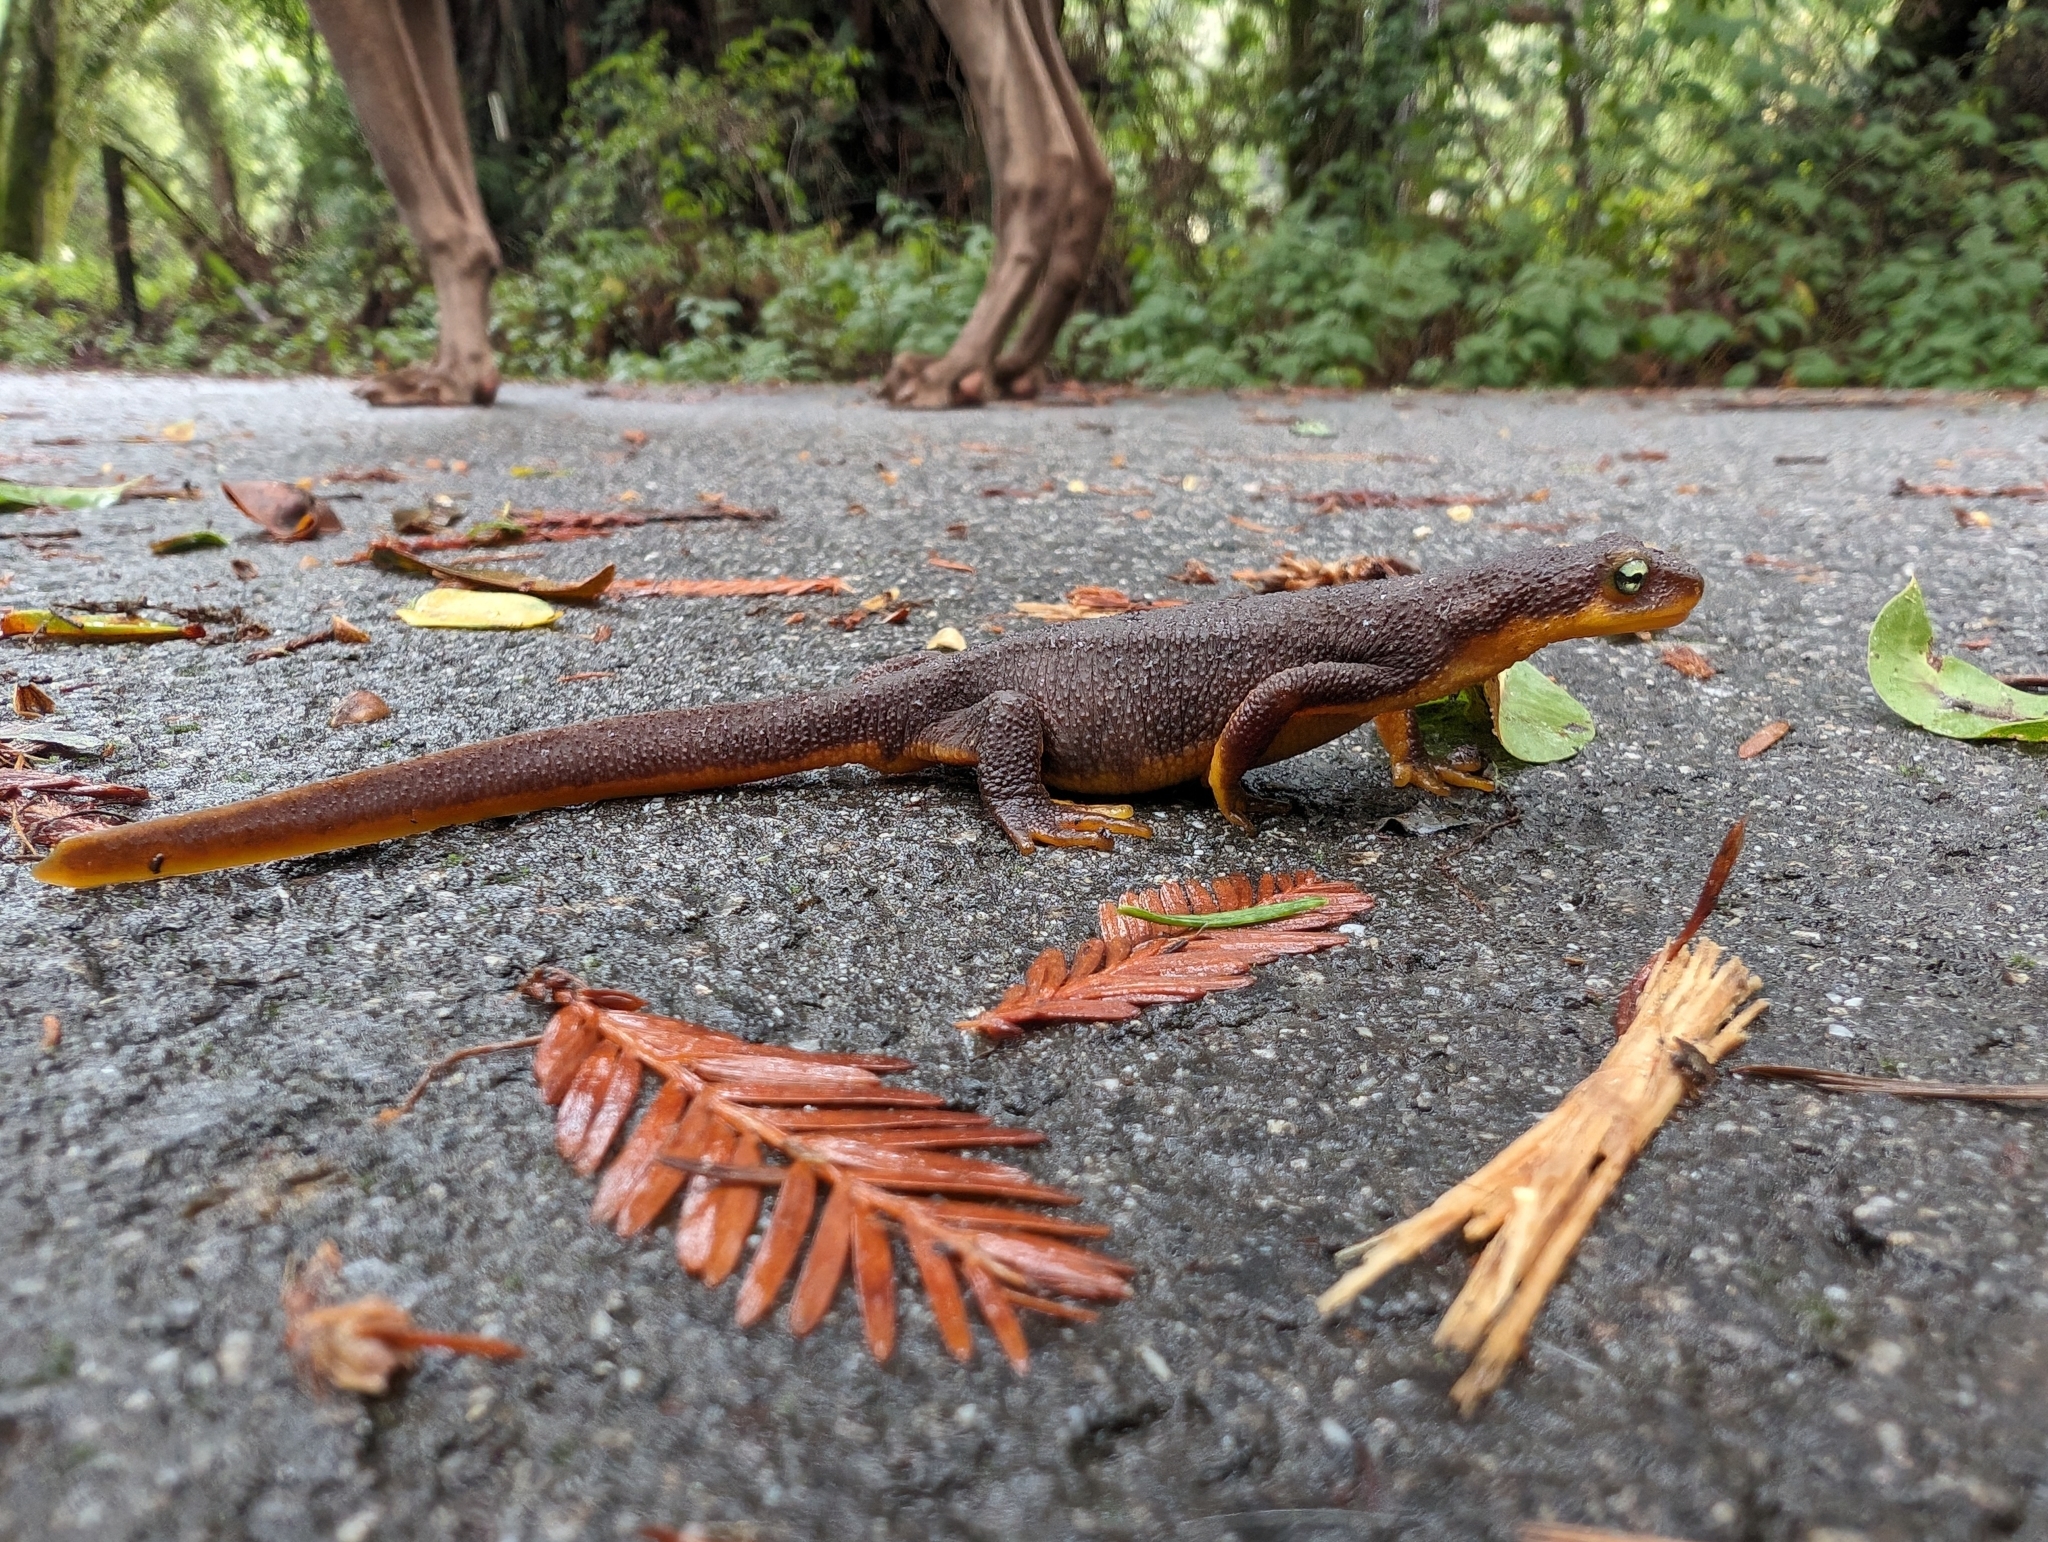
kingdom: Animalia
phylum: Chordata
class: Amphibia
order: Caudata
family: Salamandridae
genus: Taricha
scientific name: Taricha torosa
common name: California newt
